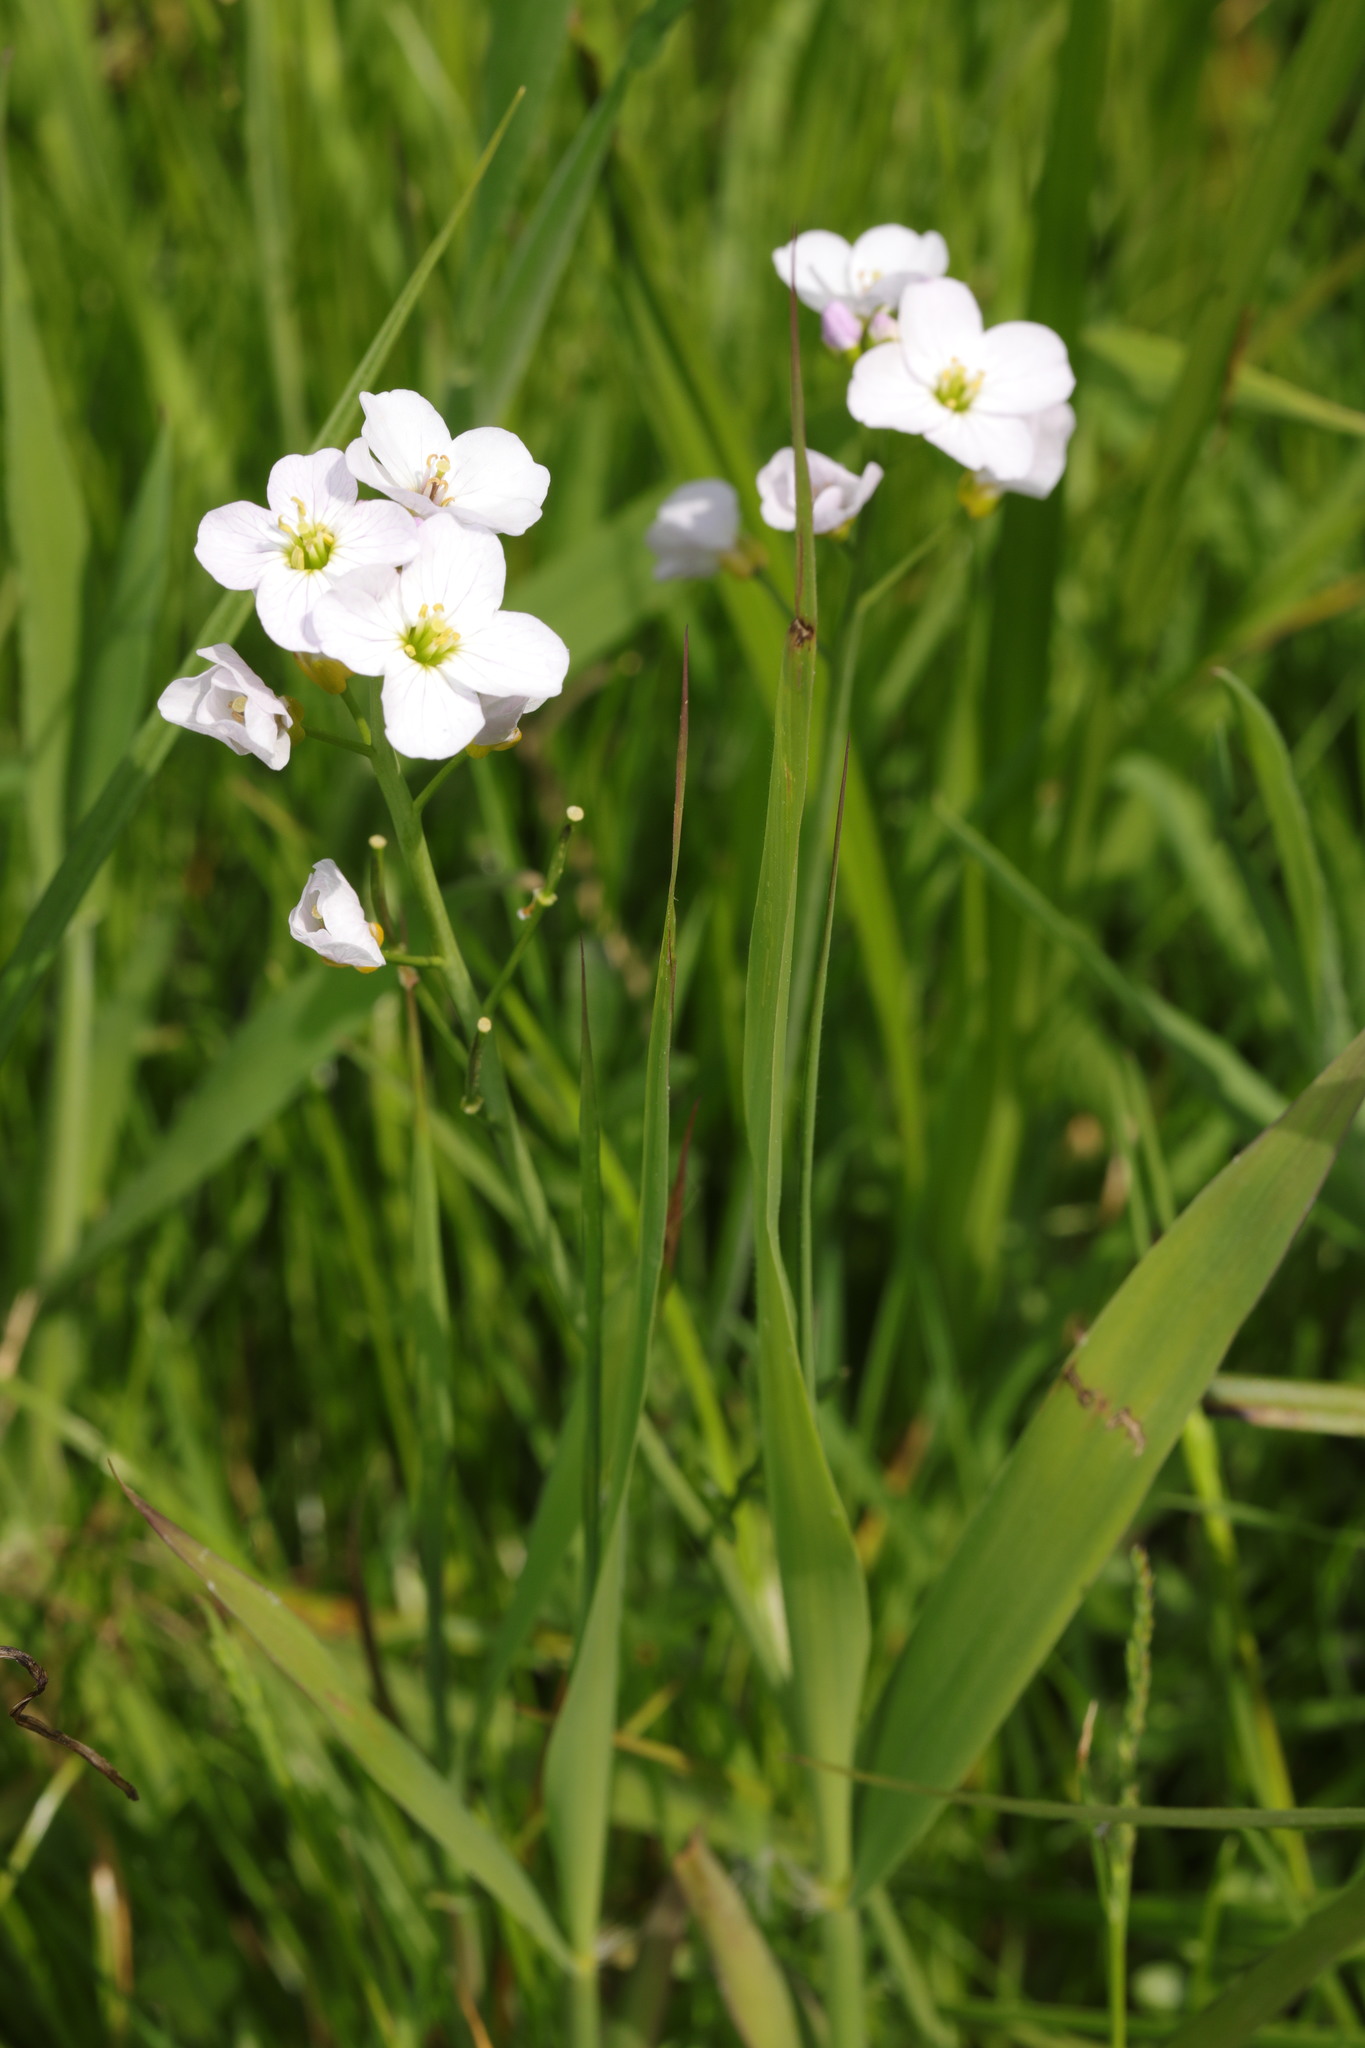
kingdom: Plantae
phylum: Tracheophyta
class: Magnoliopsida
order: Brassicales
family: Brassicaceae
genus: Cardamine
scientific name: Cardamine pratensis
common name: Cuckoo flower
